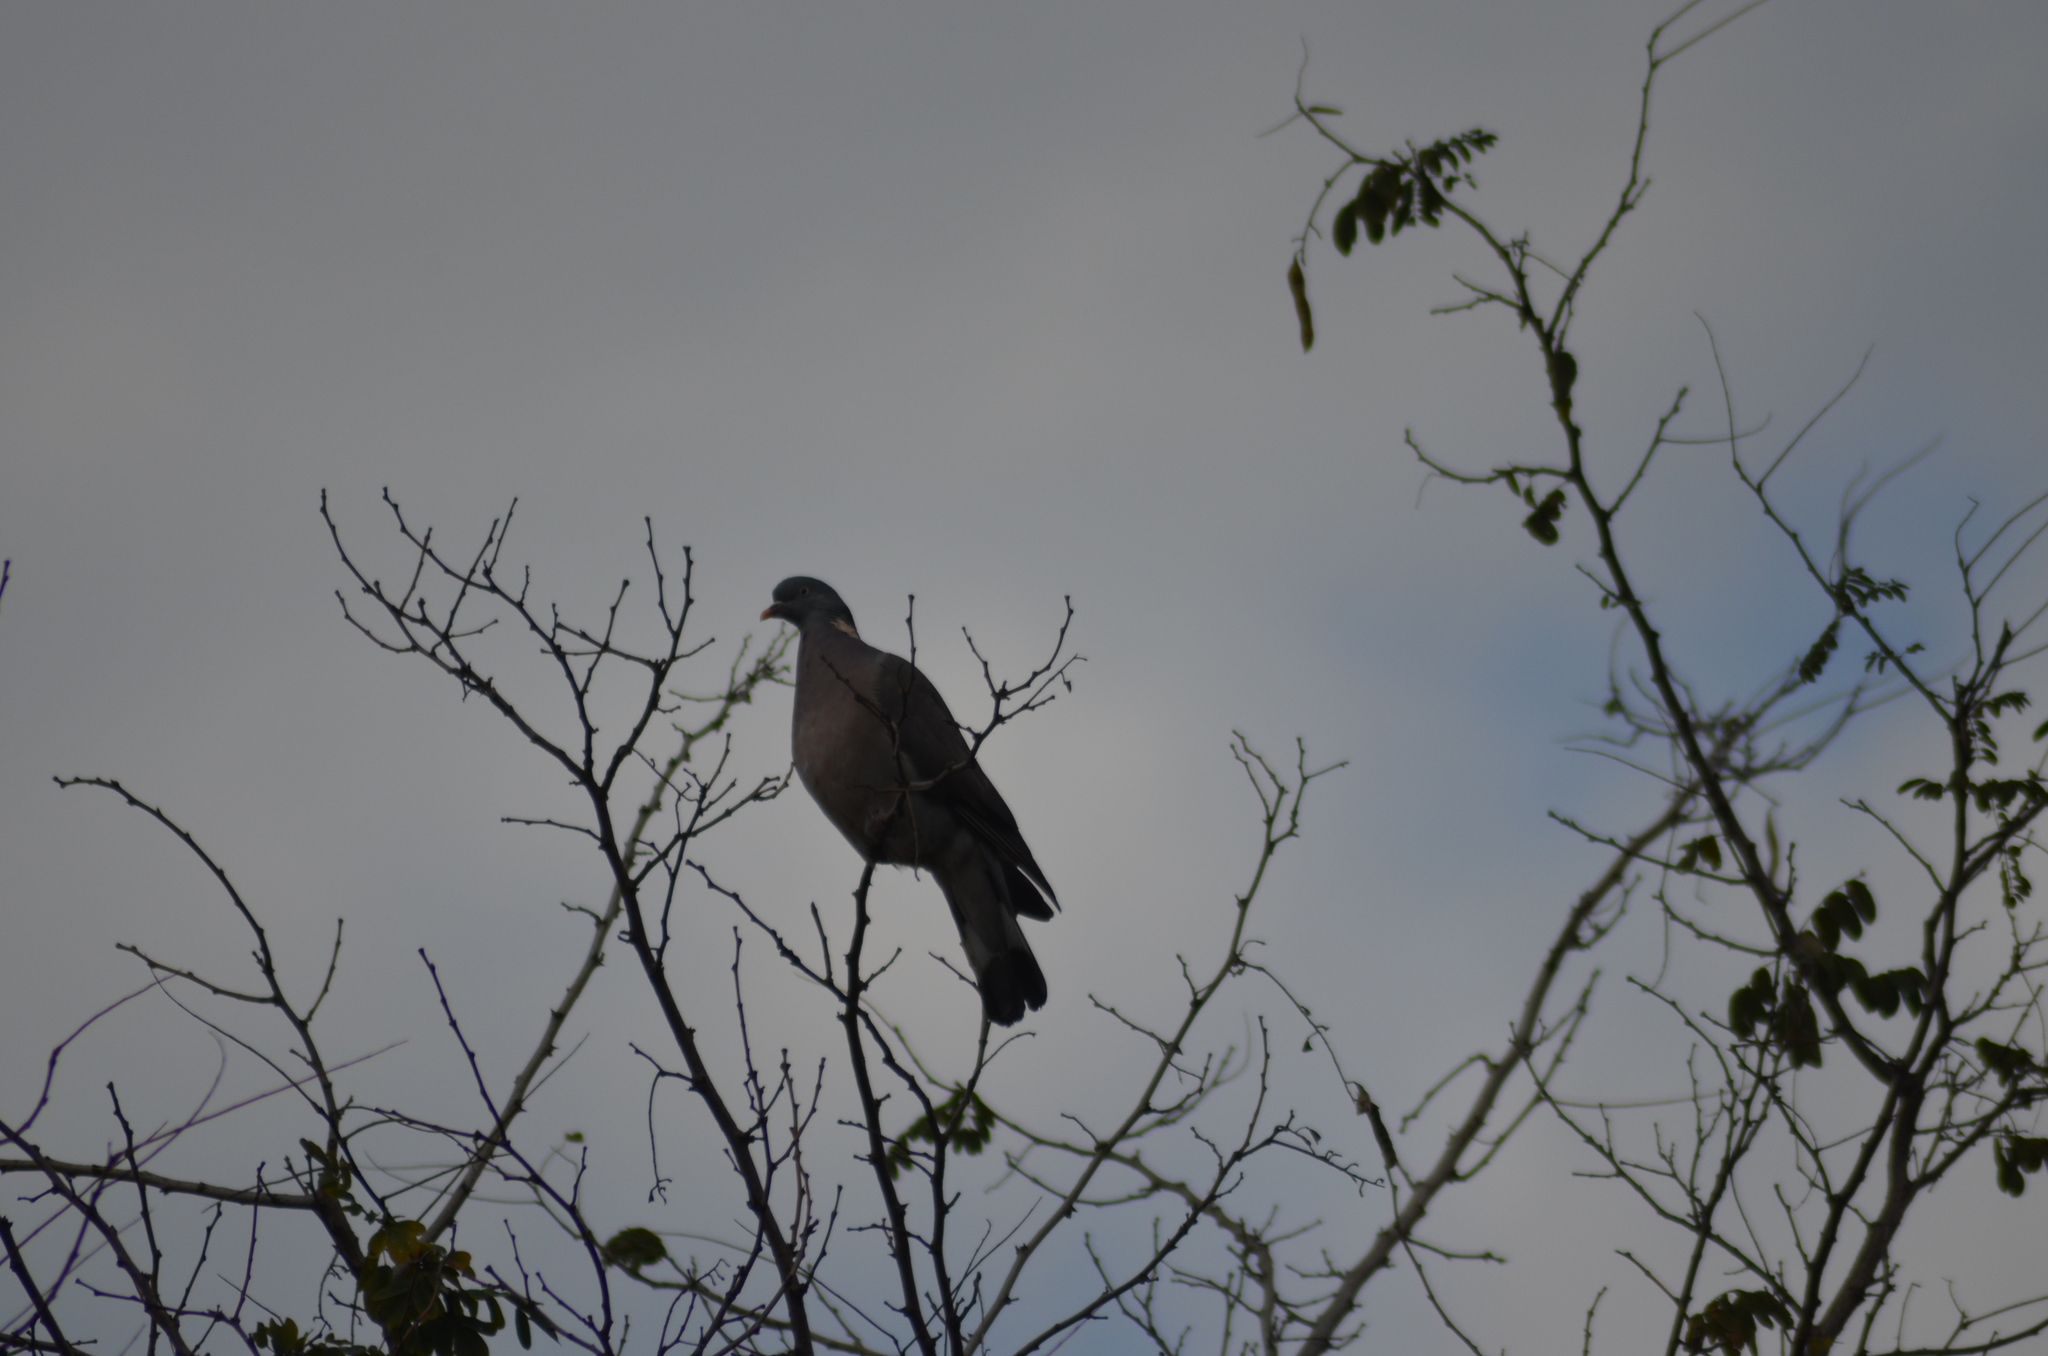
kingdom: Animalia
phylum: Chordata
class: Aves
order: Columbiformes
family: Columbidae
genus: Columba
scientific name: Columba palumbus
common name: Common wood pigeon
